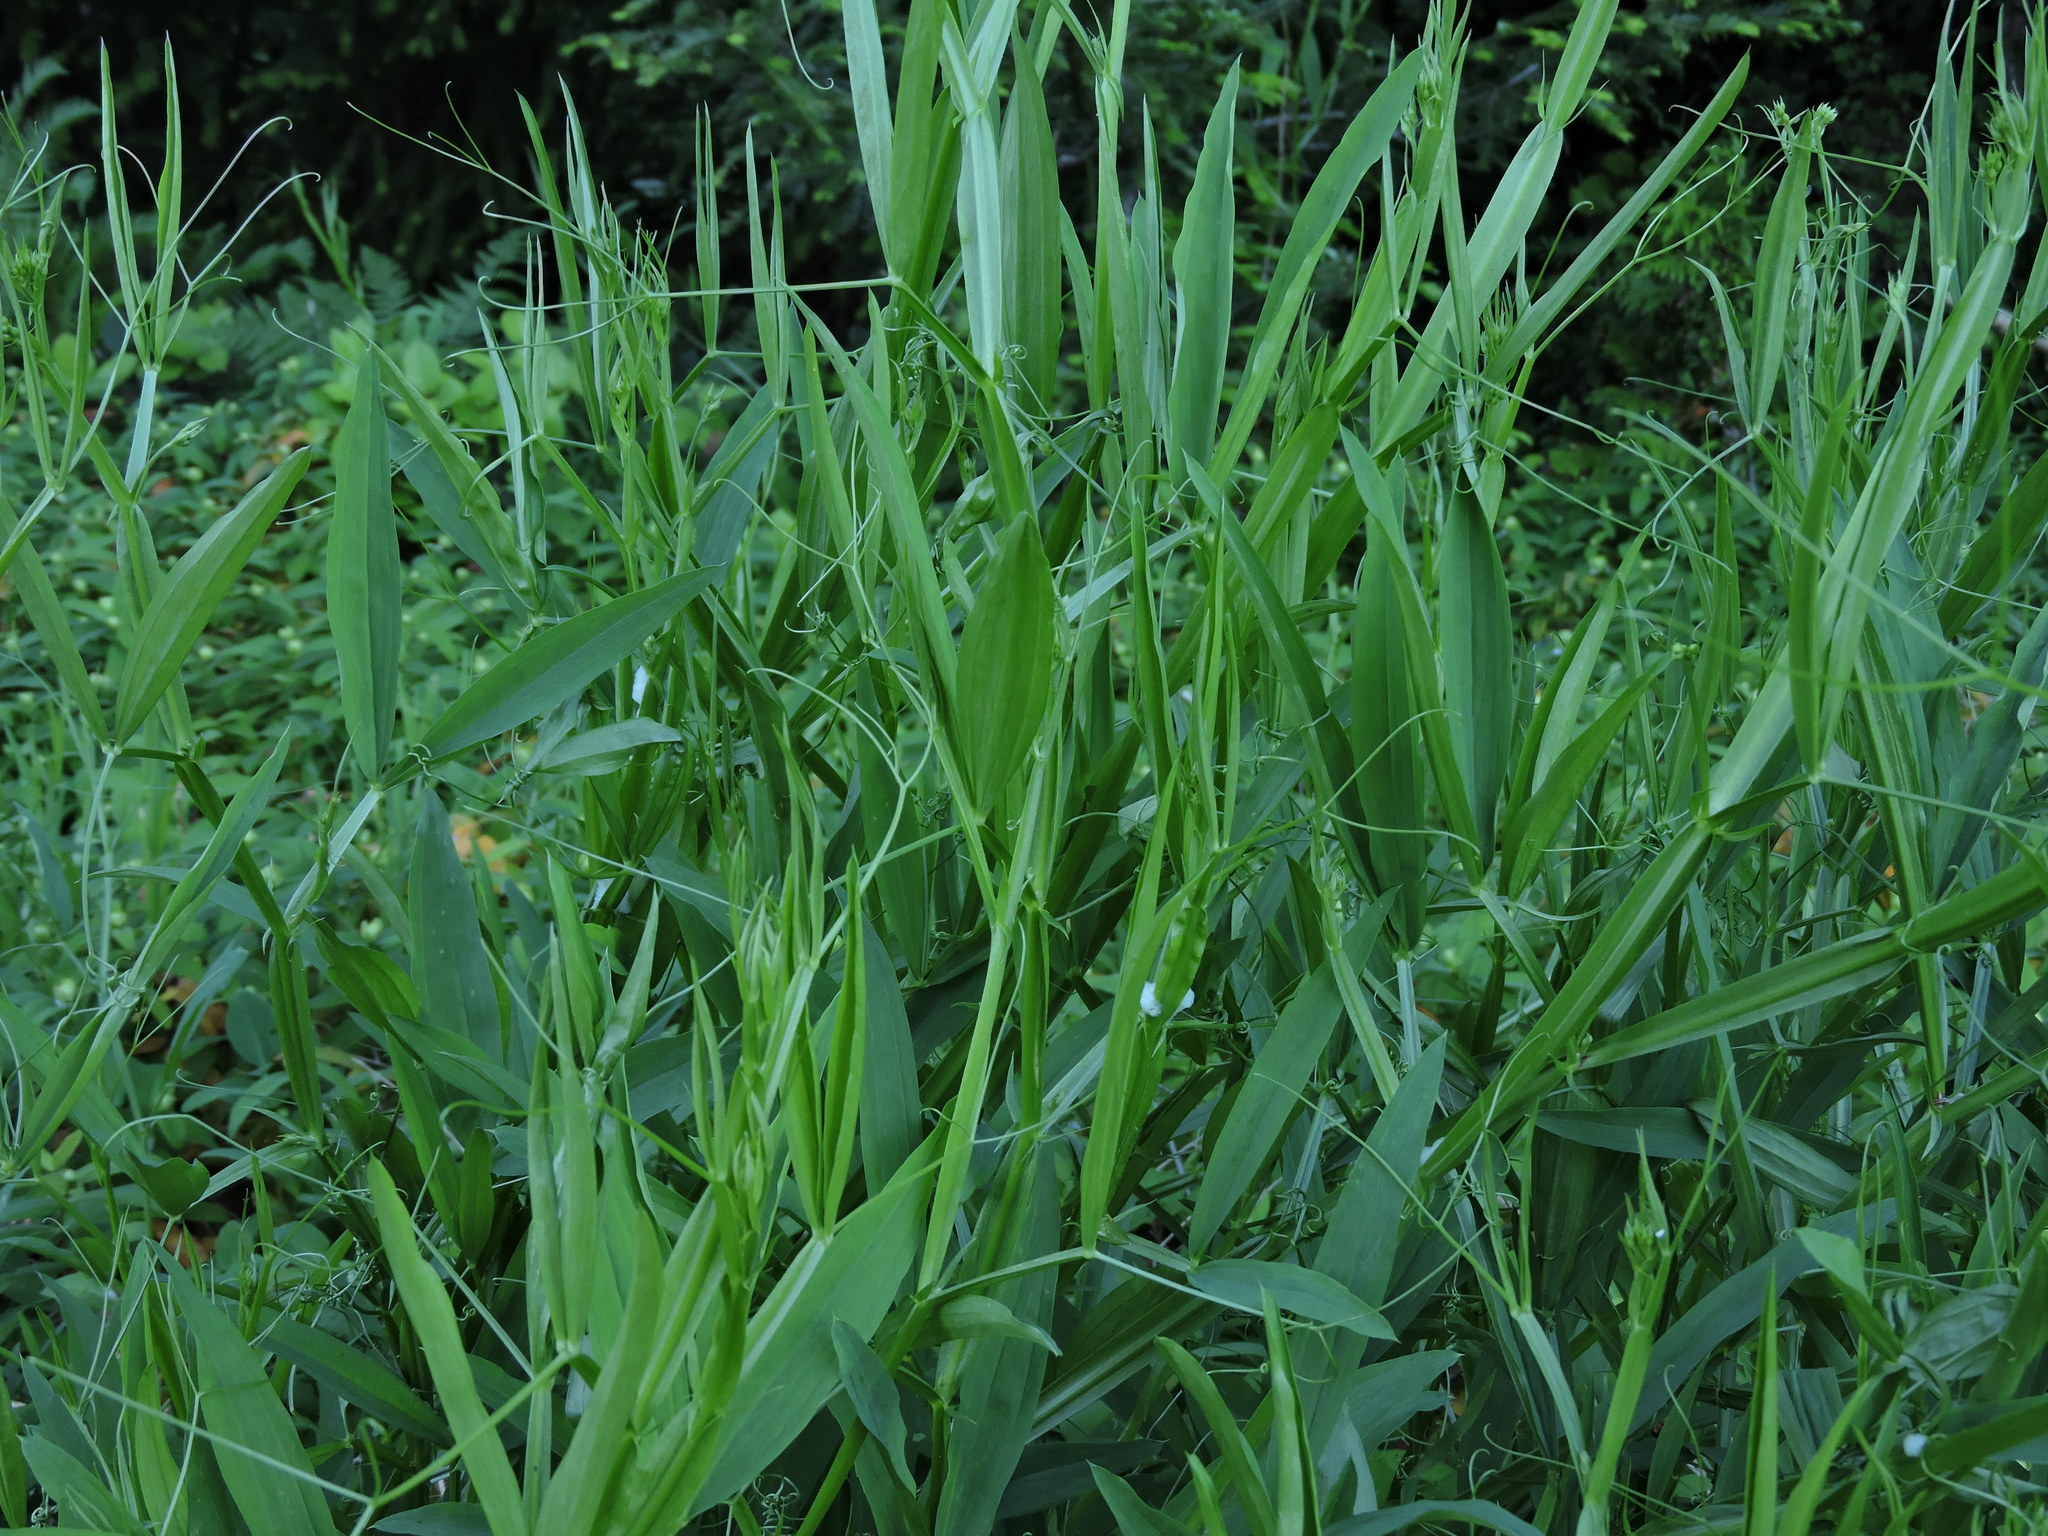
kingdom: Plantae
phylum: Tracheophyta
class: Magnoliopsida
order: Fabales
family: Fabaceae
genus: Lathyrus
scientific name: Lathyrus sylvestris
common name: Flat pea
